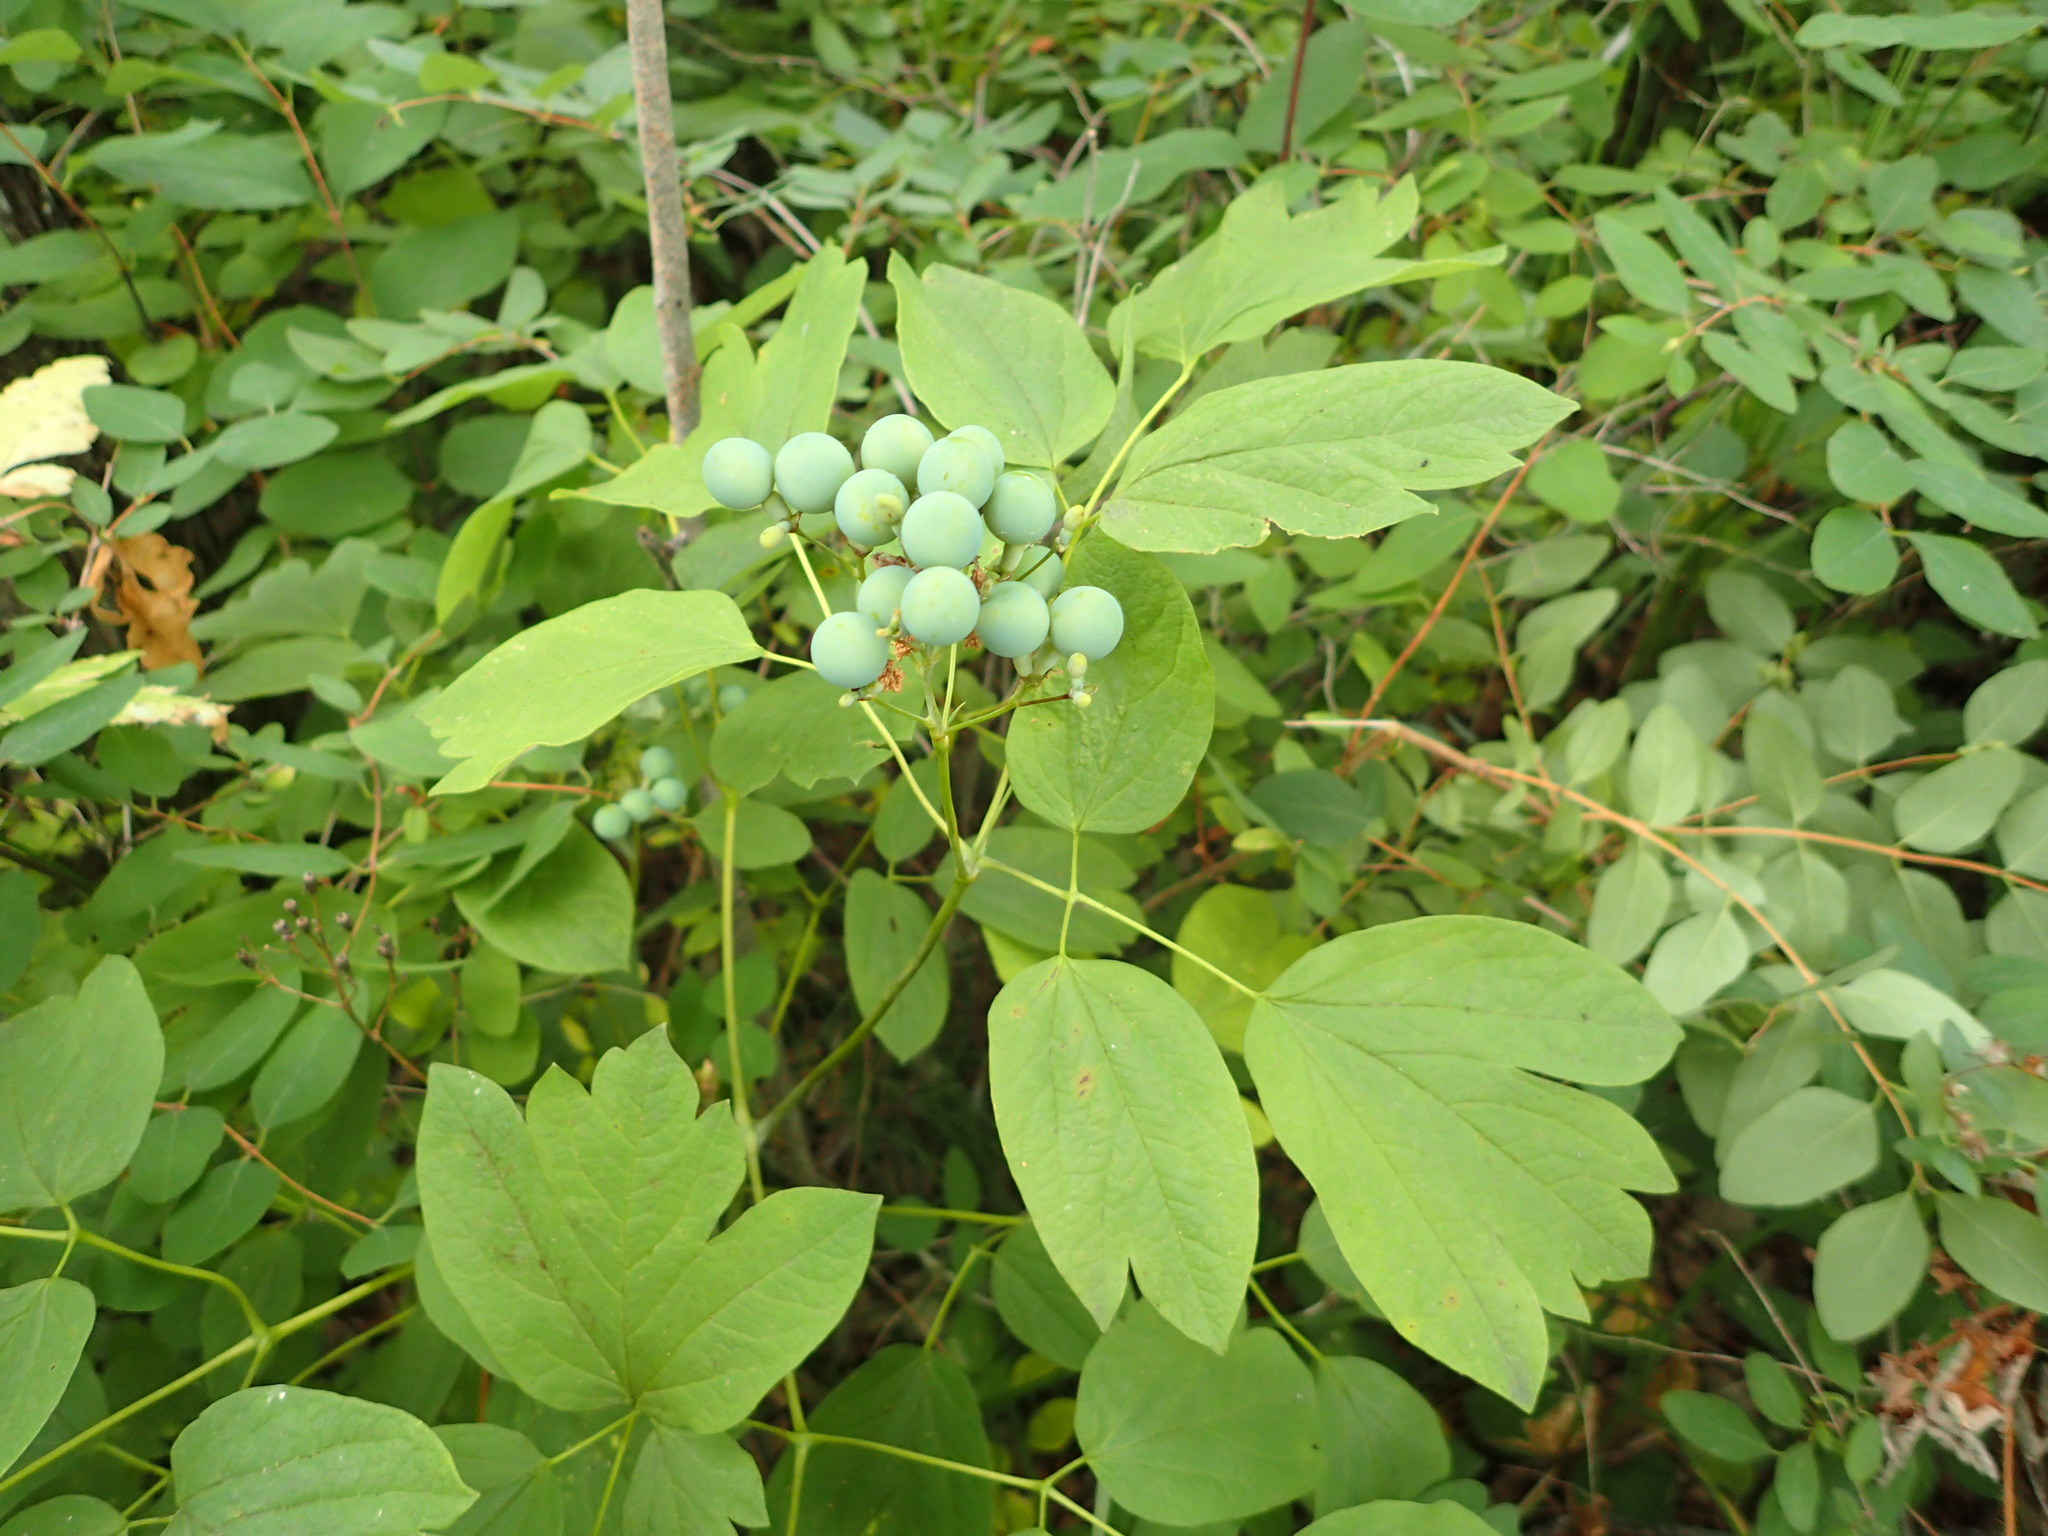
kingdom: Plantae
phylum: Tracheophyta
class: Magnoliopsida
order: Ranunculales
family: Berberidaceae
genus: Caulophyllum
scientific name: Caulophyllum thalictroides
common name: Blue cohosh
